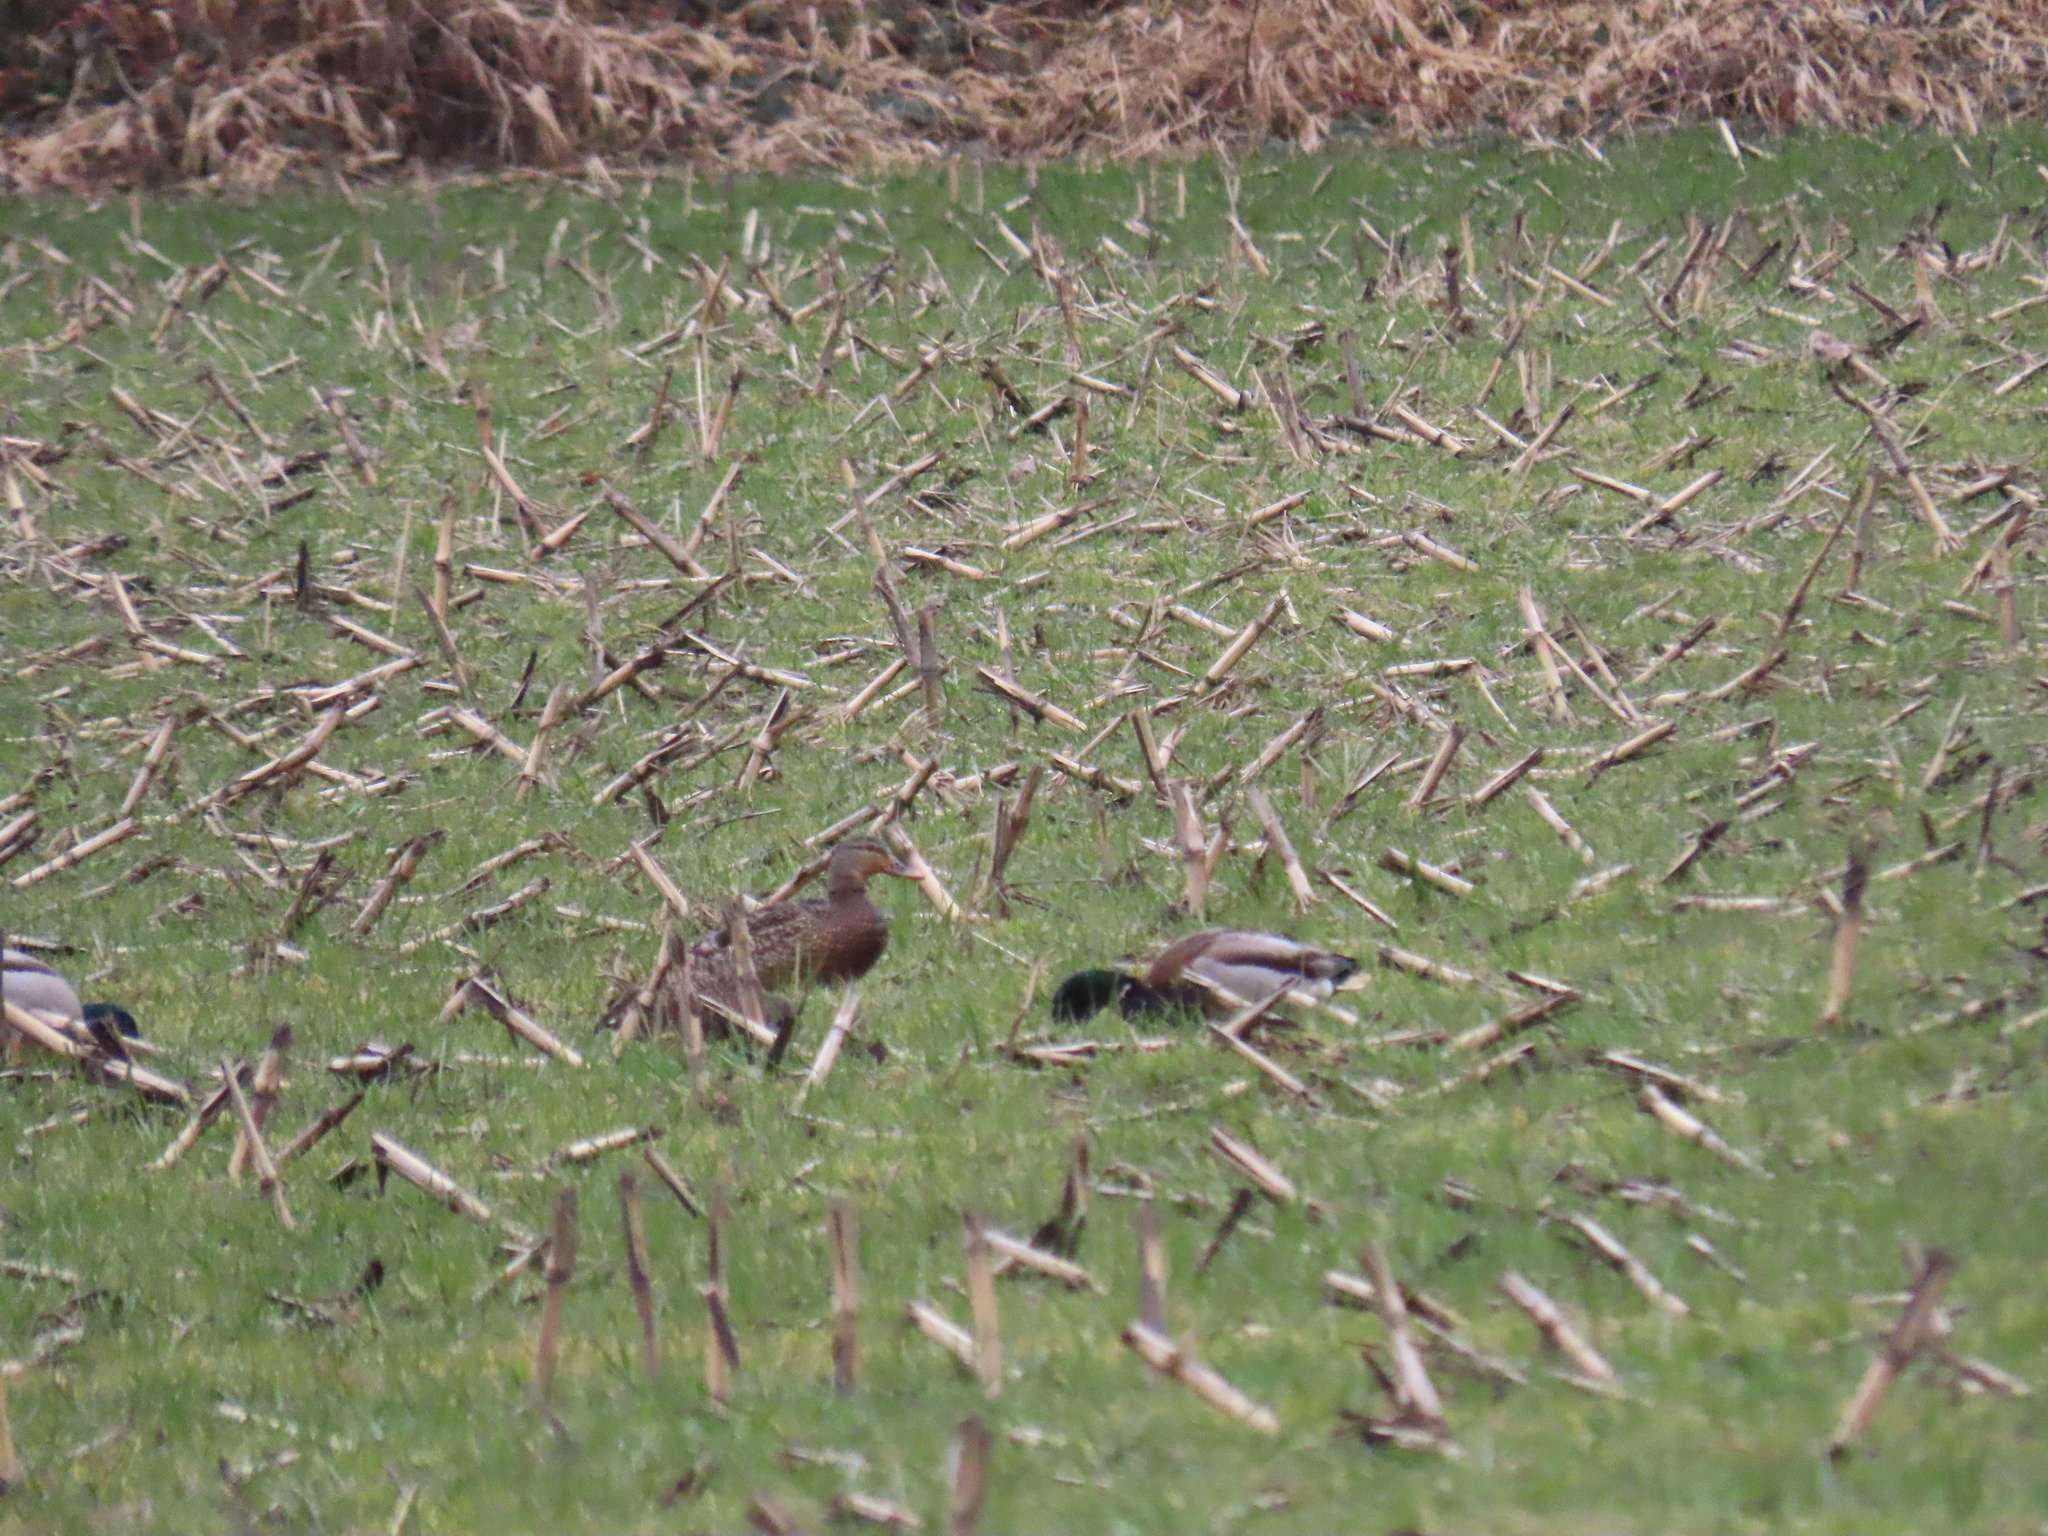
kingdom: Animalia
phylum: Chordata
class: Aves
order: Anseriformes
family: Anatidae
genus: Anas
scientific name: Anas platyrhynchos
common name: Mallard
